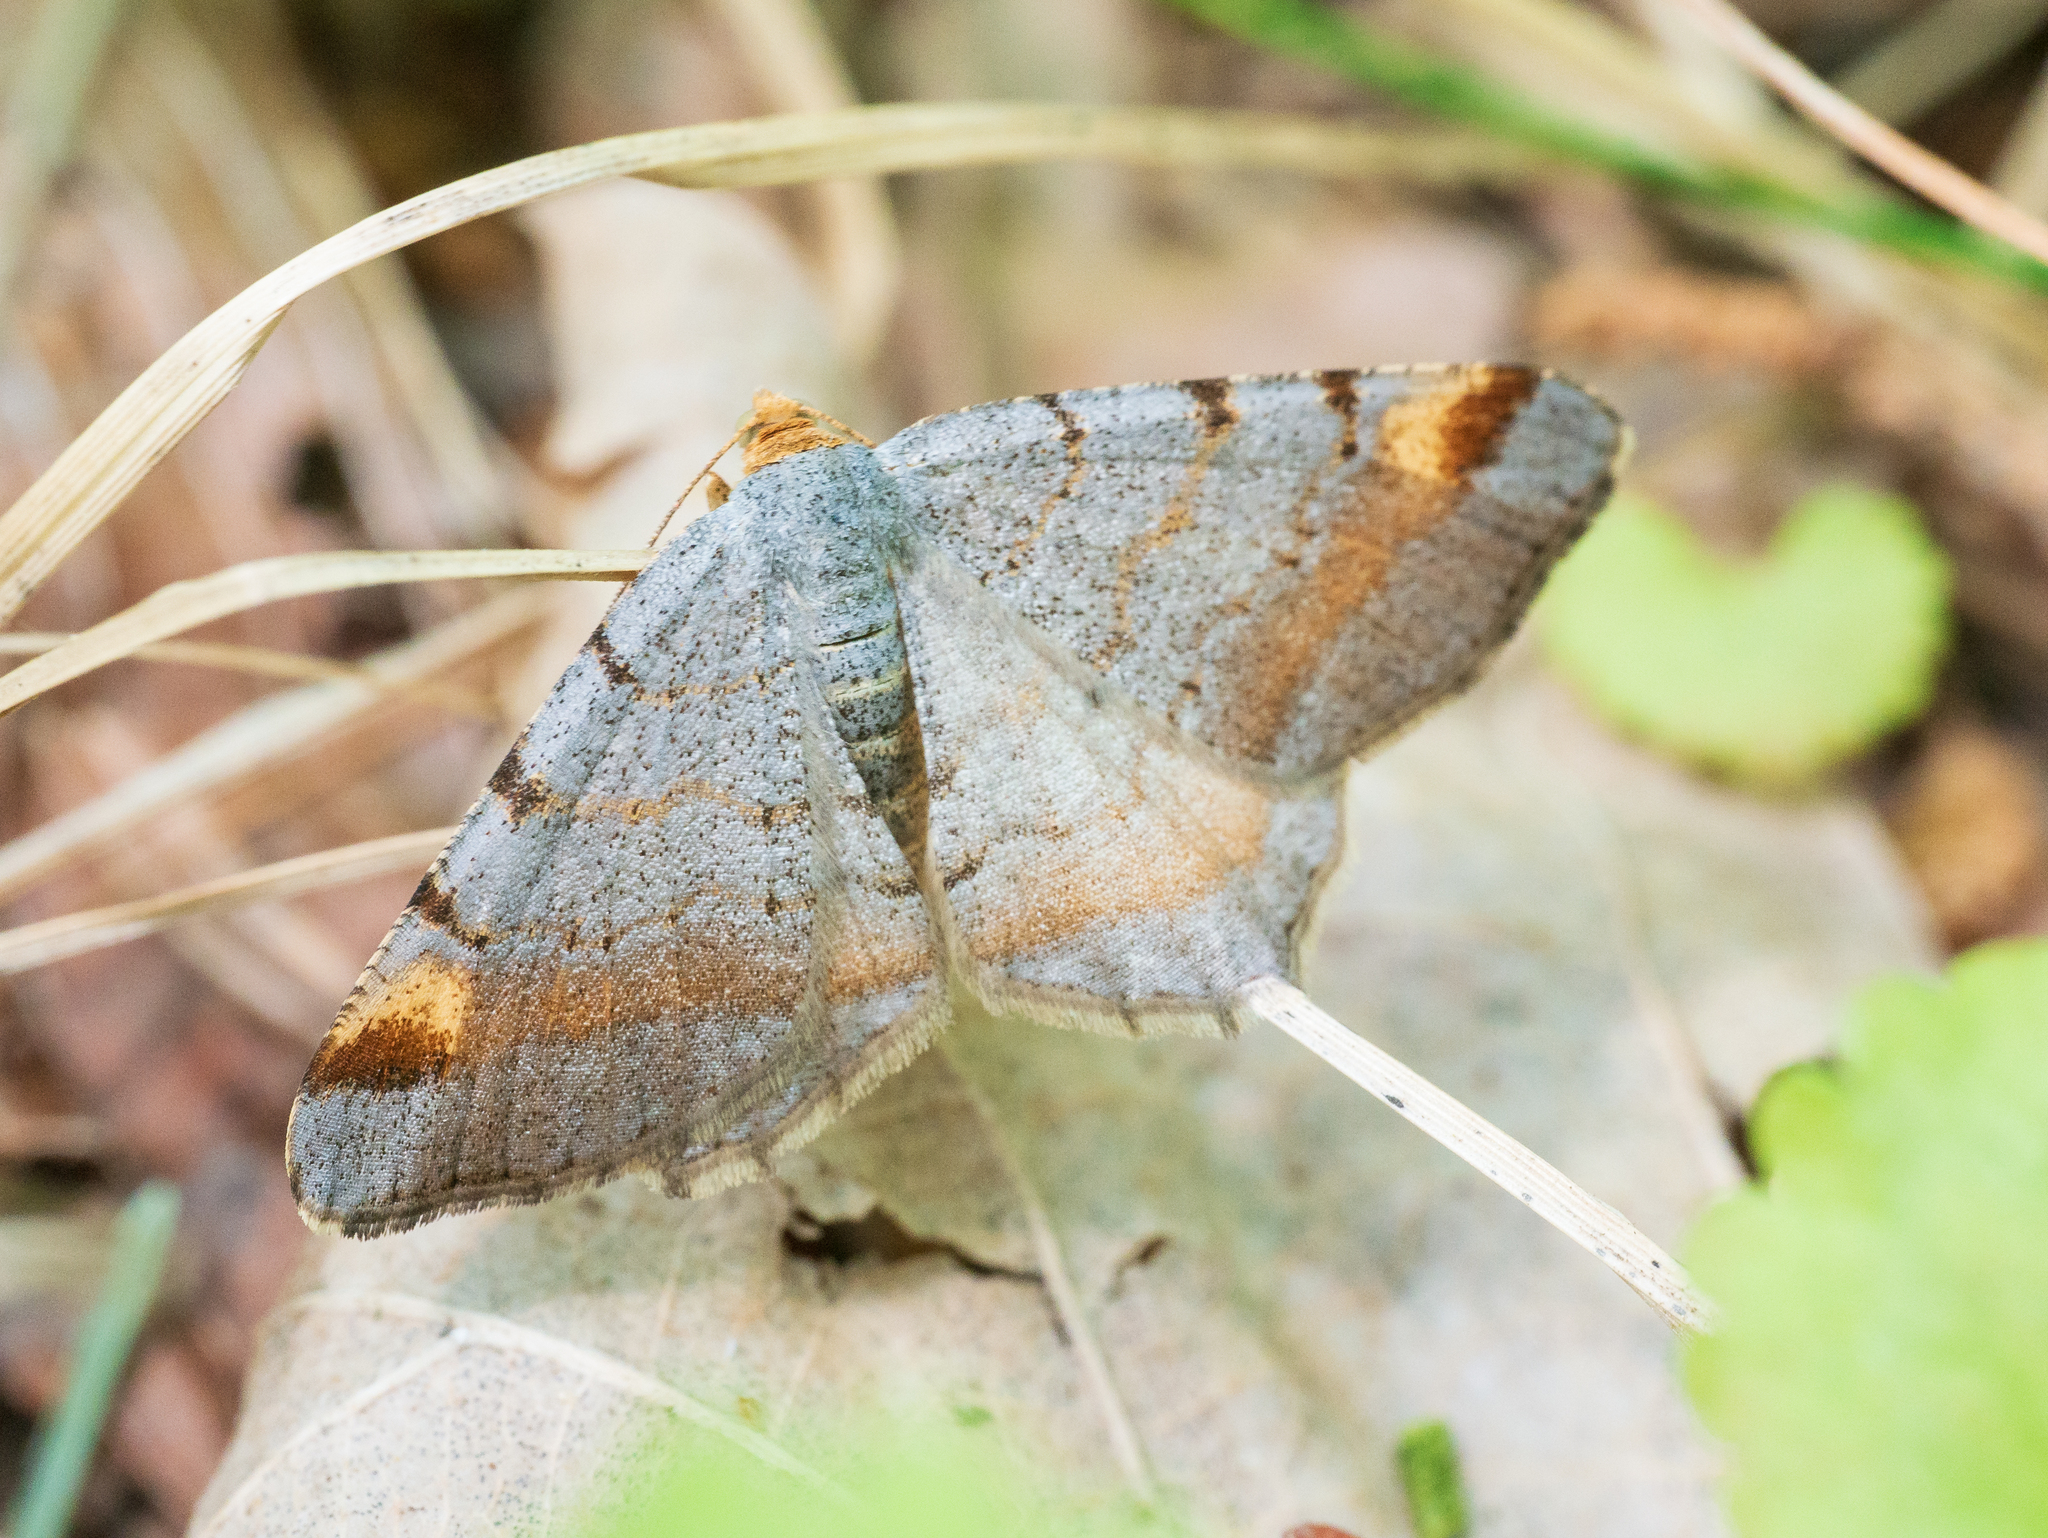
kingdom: Animalia
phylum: Arthropoda
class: Insecta
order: Lepidoptera
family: Geometridae
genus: Macaria
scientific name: Macaria liturata
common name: Tawny-barred angle
